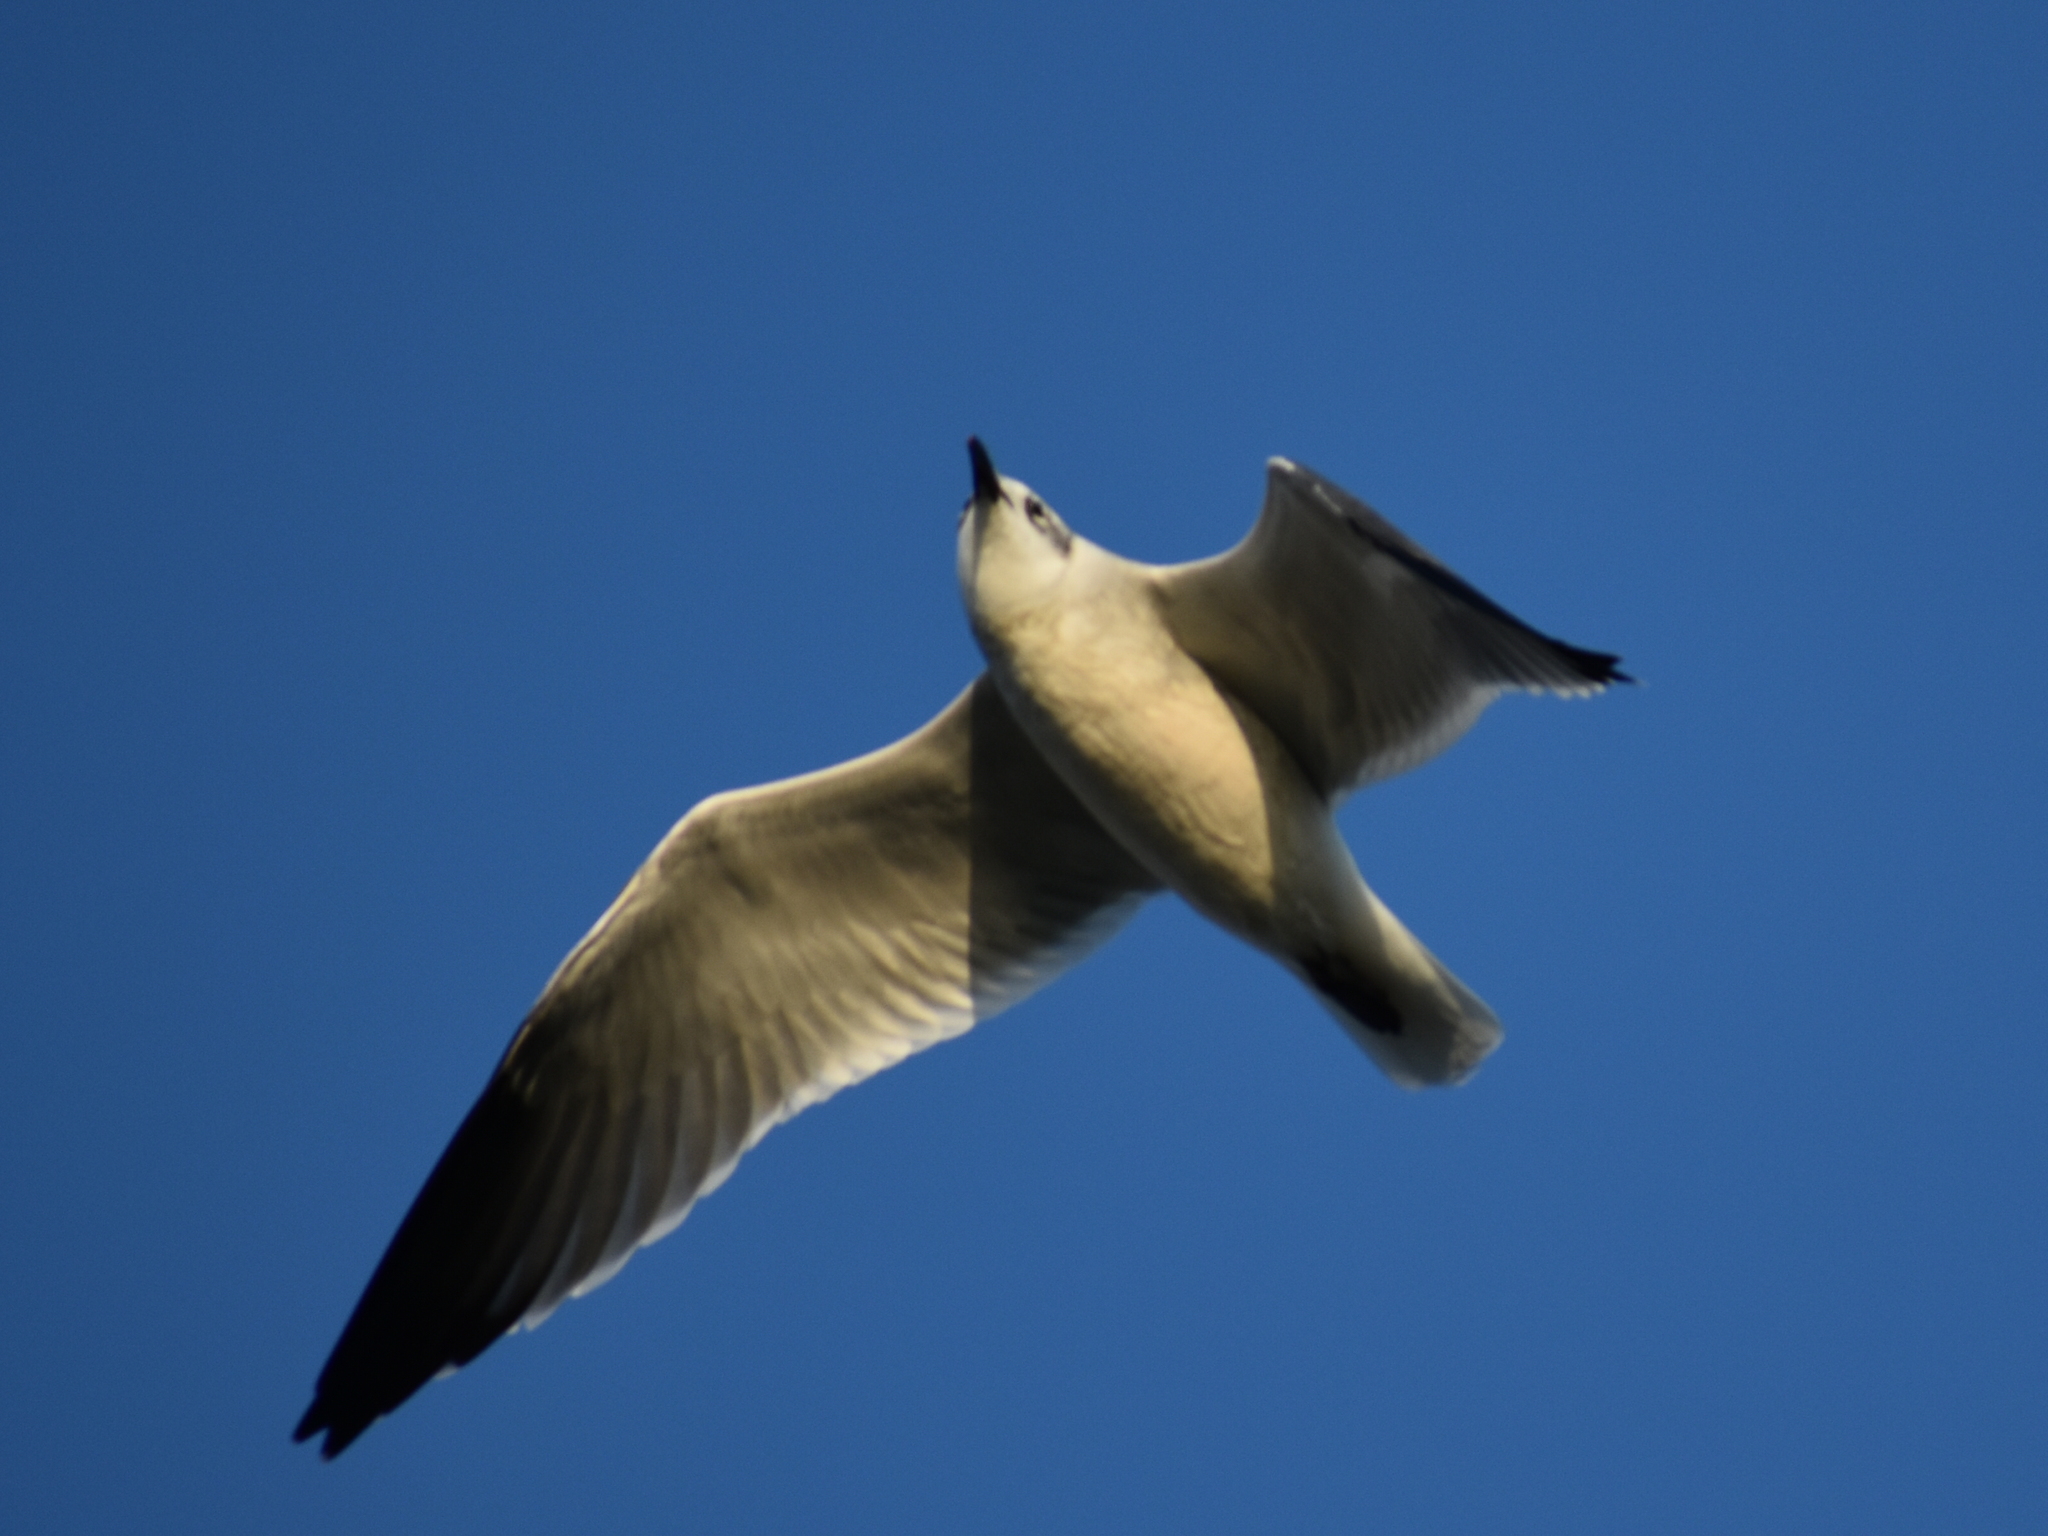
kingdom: Animalia
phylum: Chordata
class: Aves
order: Charadriiformes
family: Laridae
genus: Leucophaeus
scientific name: Leucophaeus atricilla
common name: Laughing gull
